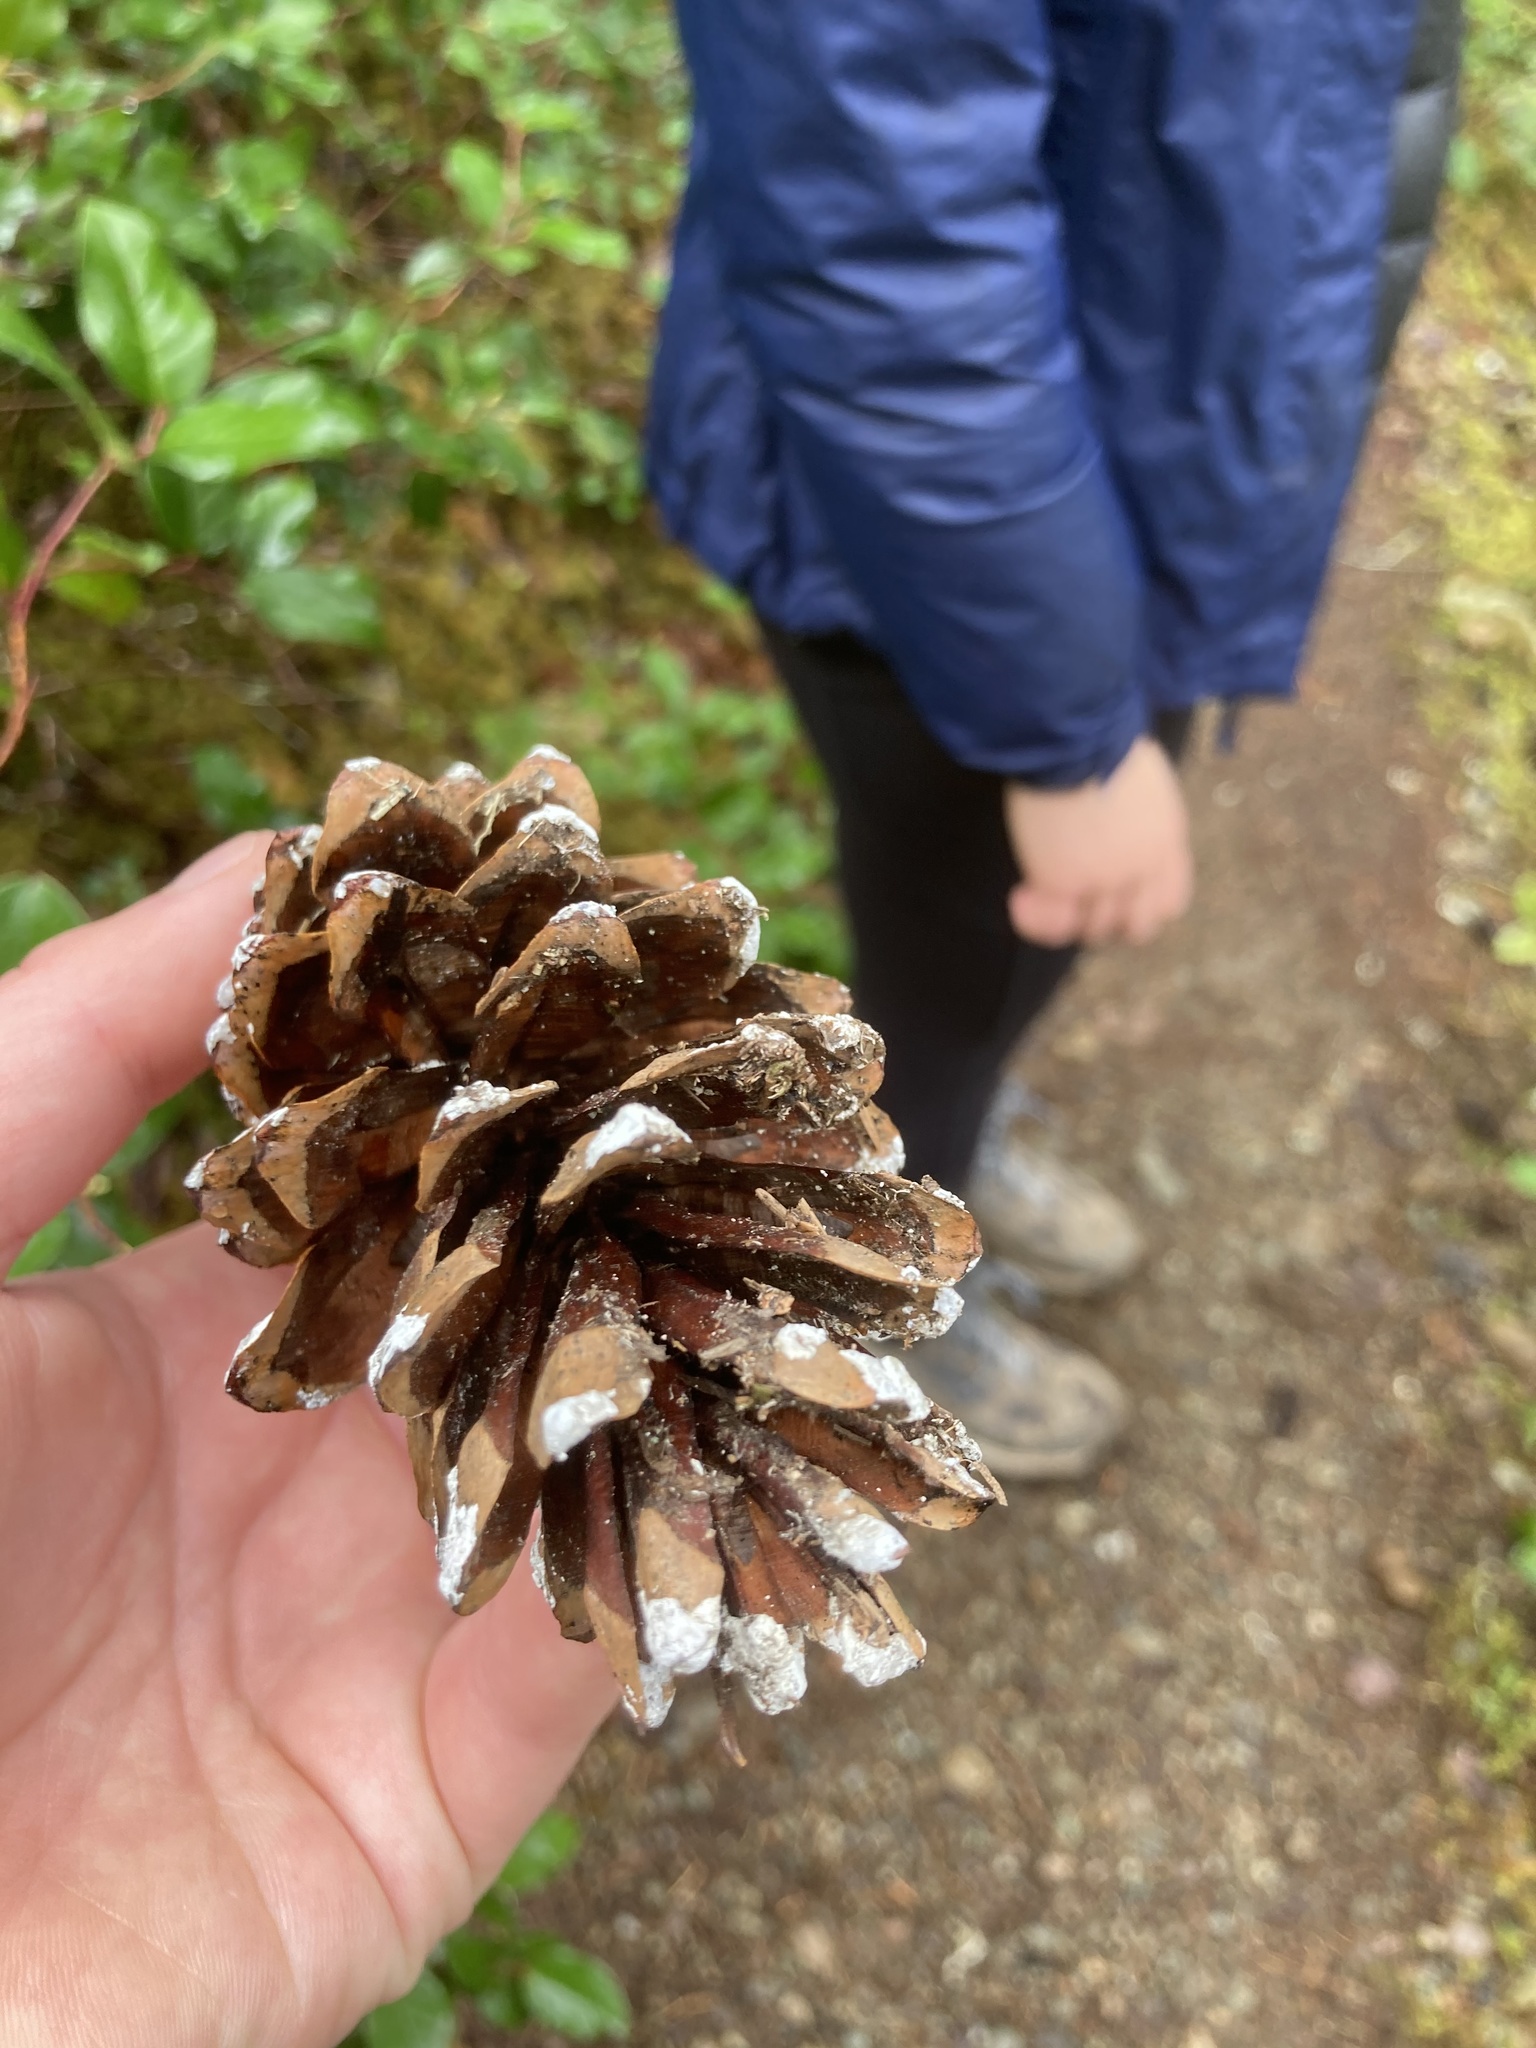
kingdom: Plantae
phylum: Tracheophyta
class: Pinopsida
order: Pinales
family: Pinaceae
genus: Pinus
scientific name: Pinus monticola
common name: Western white pine
